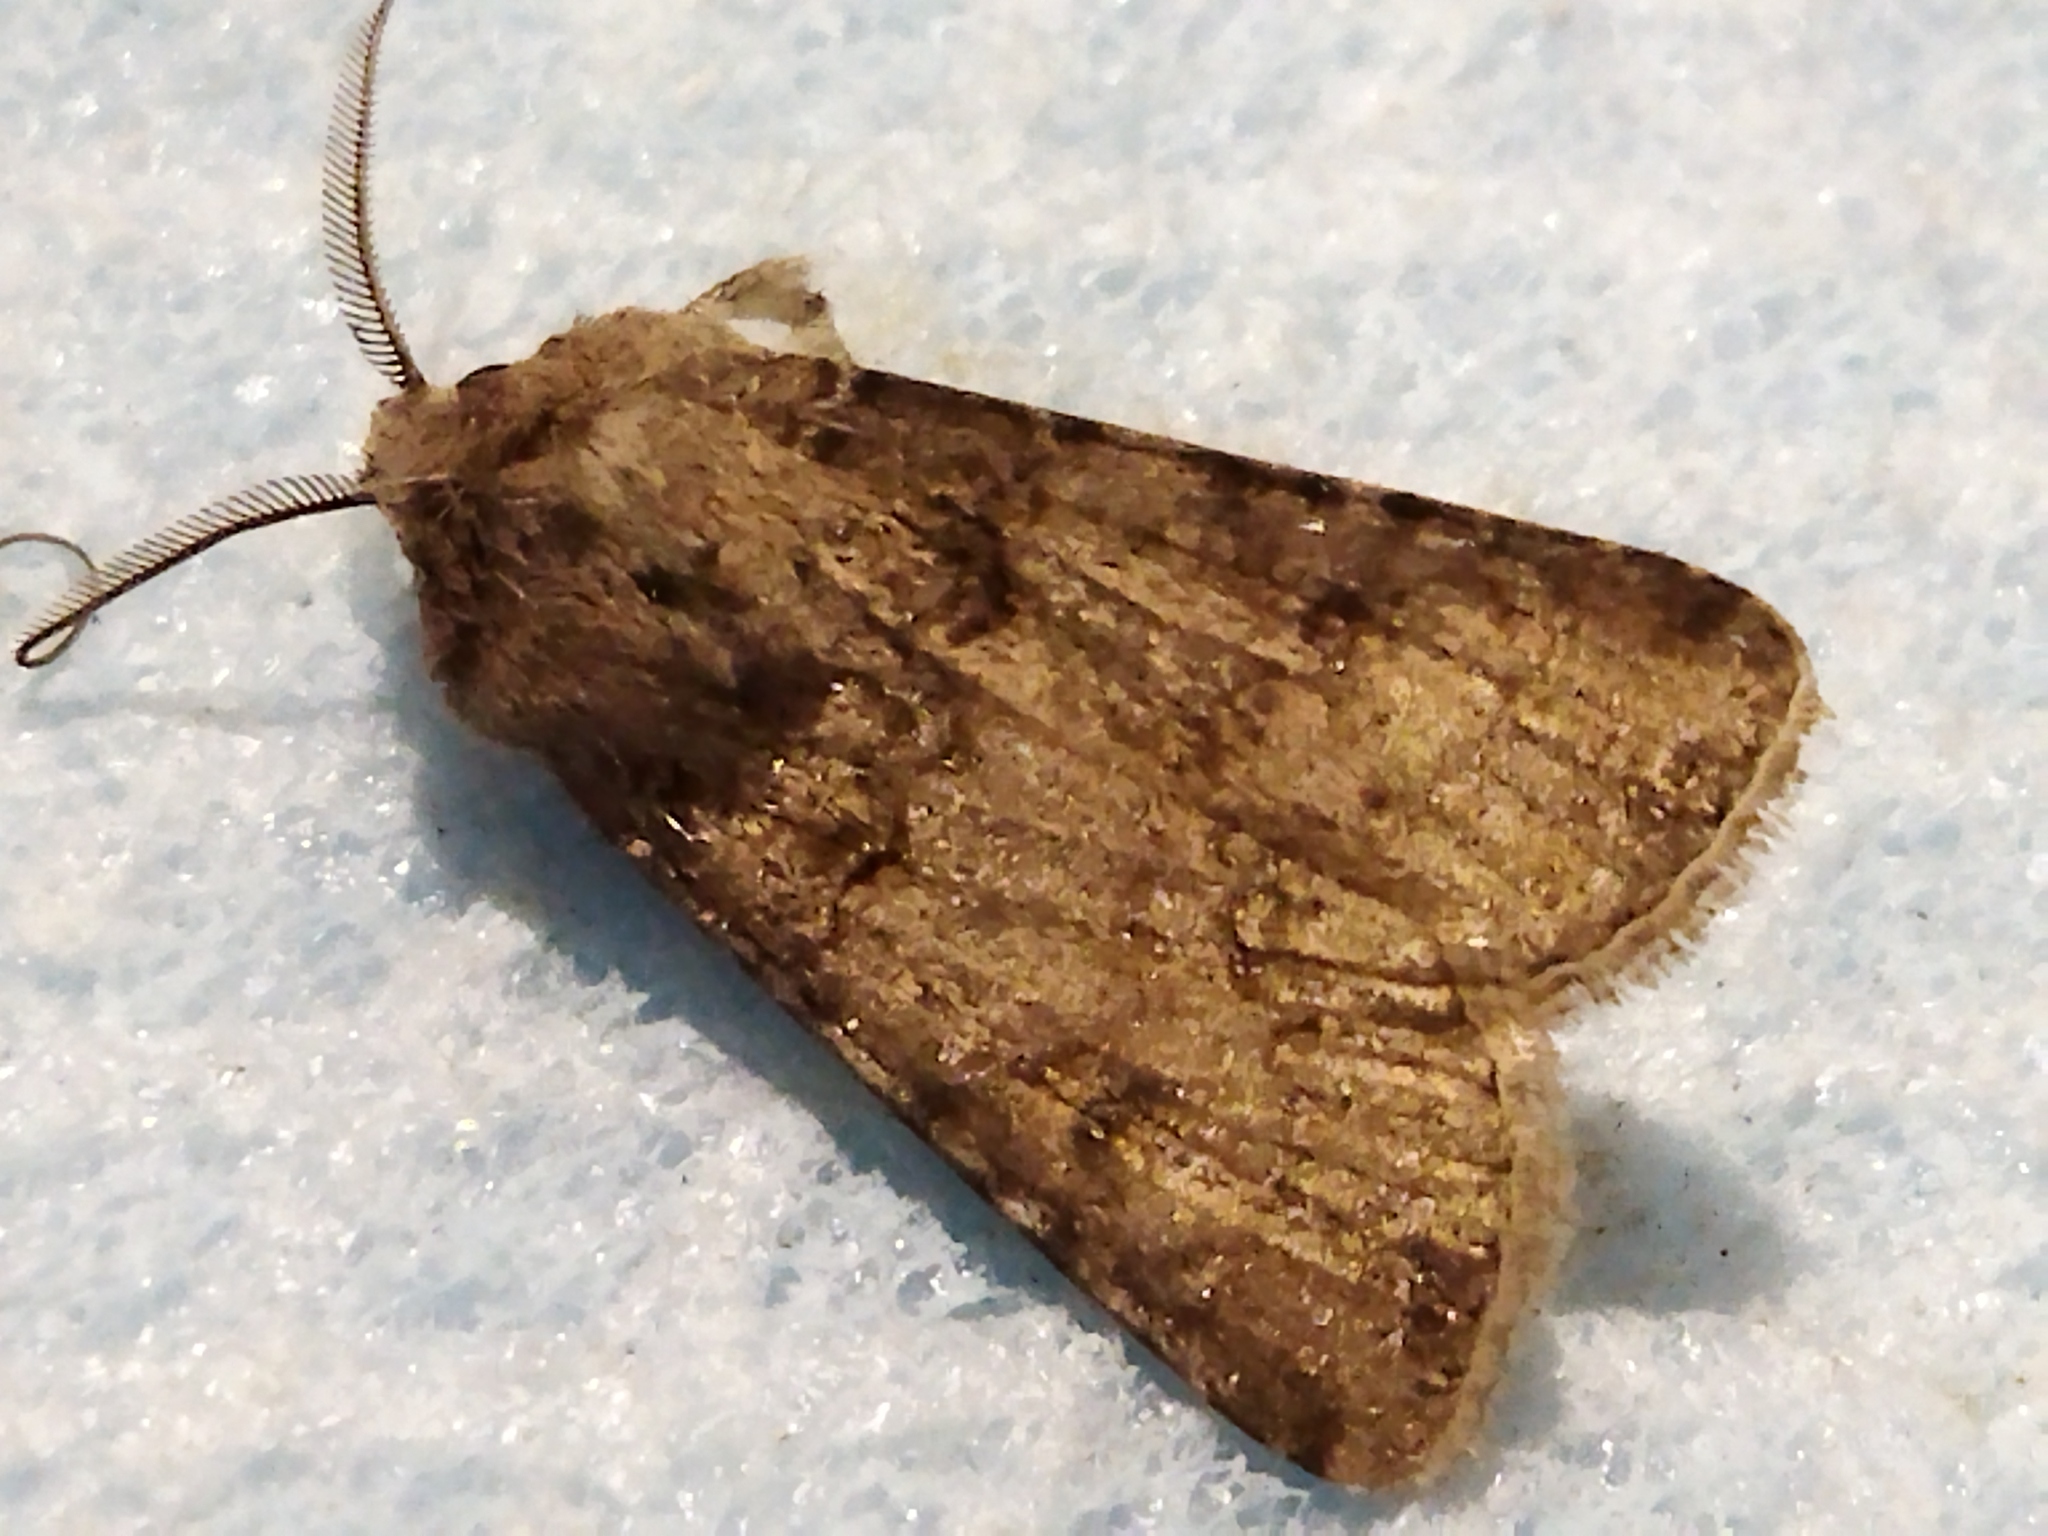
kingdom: Animalia
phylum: Arthropoda
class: Insecta
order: Lepidoptera
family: Noctuidae
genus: Agrotis
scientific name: Agrotis segetum
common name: Turnip moth
